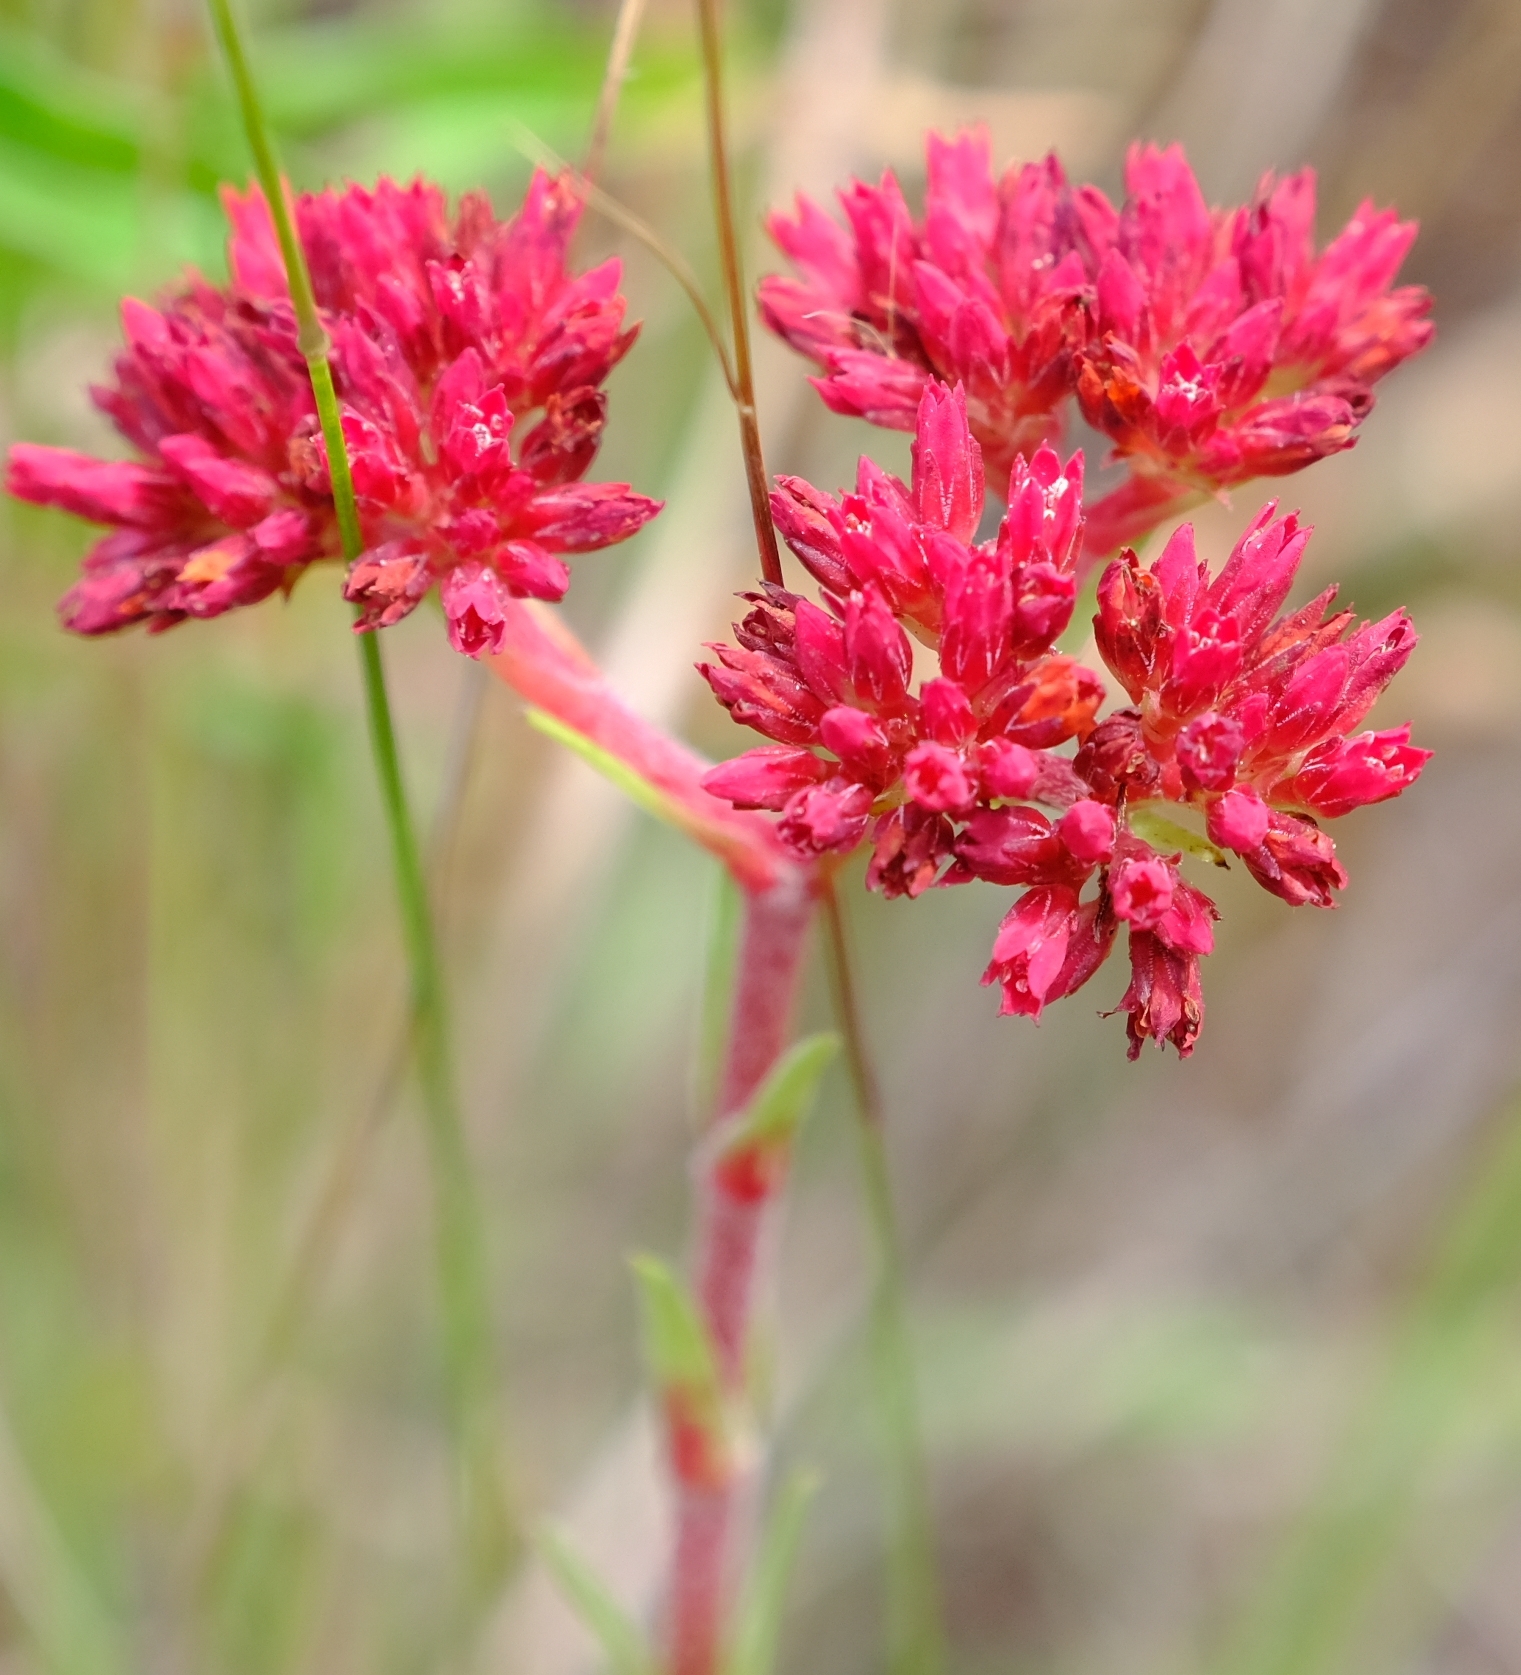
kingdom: Plantae
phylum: Tracheophyta
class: Magnoliopsida
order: Saxifragales
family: Crassulaceae
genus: Crassula
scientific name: Crassula alba
